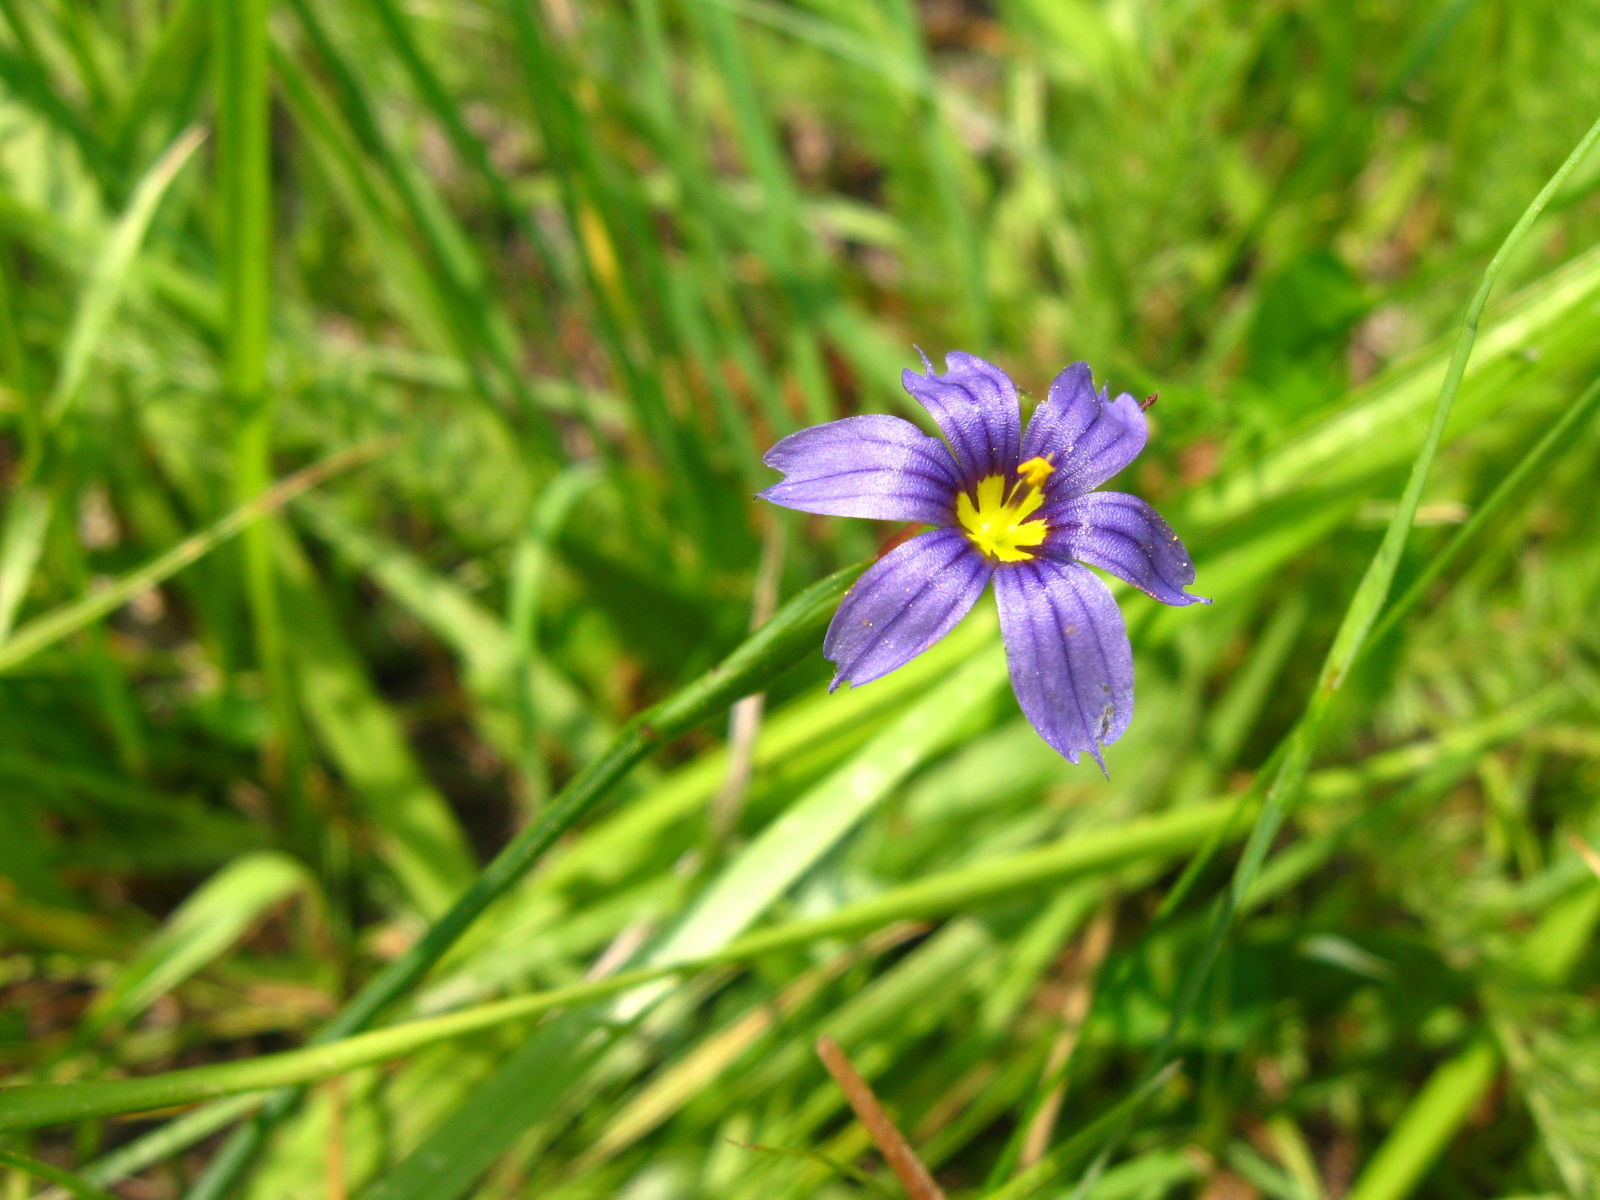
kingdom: Plantae
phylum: Tracheophyta
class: Liliopsida
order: Asparagales
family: Iridaceae
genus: Sisyrinchium
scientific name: Sisyrinchium bellum
